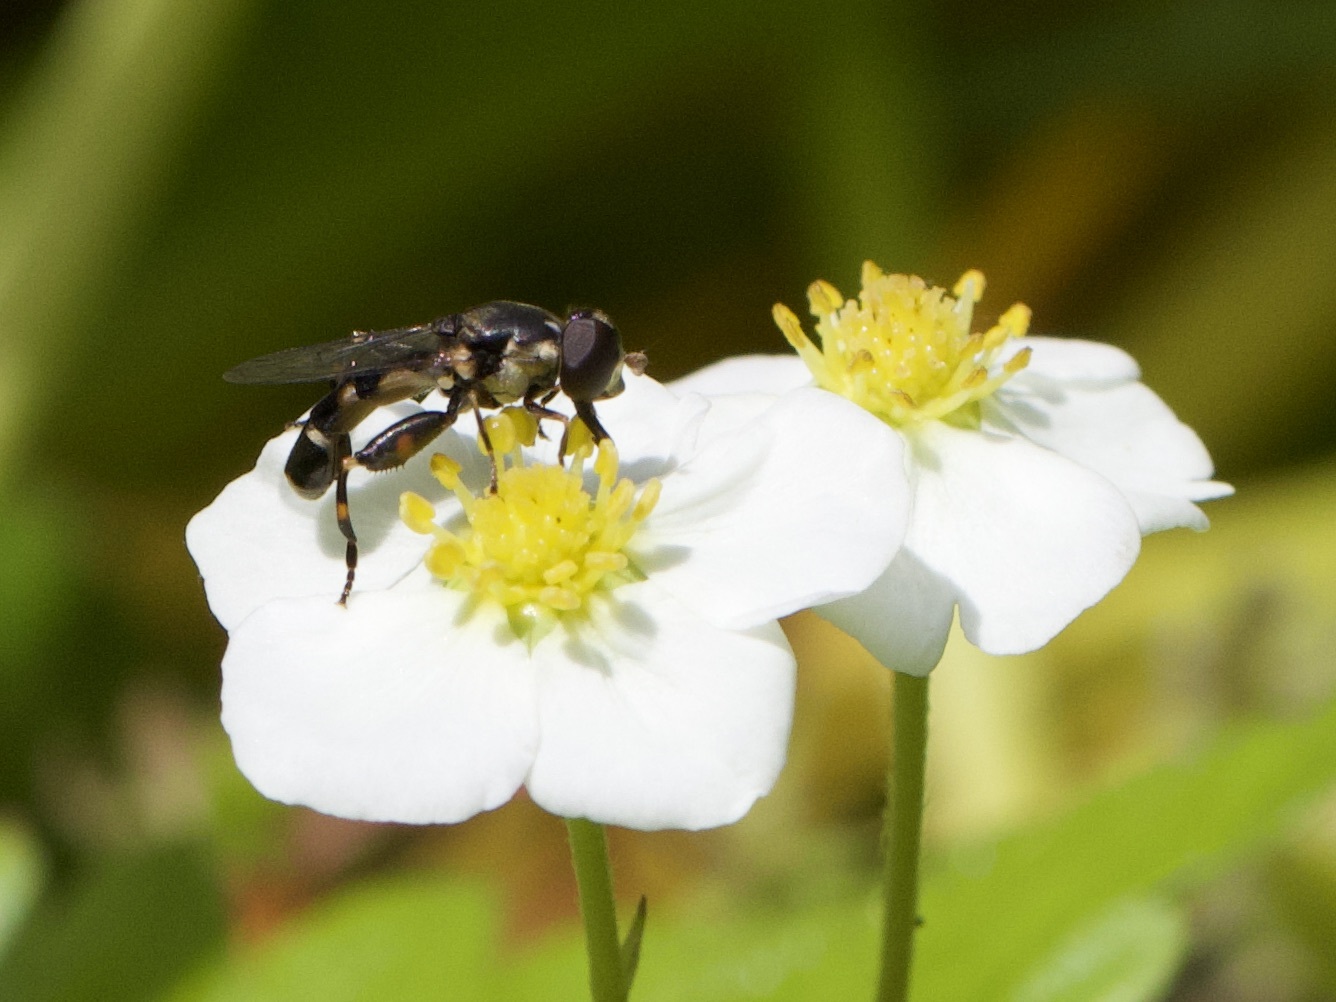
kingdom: Animalia
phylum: Arthropoda
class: Insecta
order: Diptera
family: Syrphidae
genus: Syritta
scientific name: Syritta pipiens
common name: Hover fly
